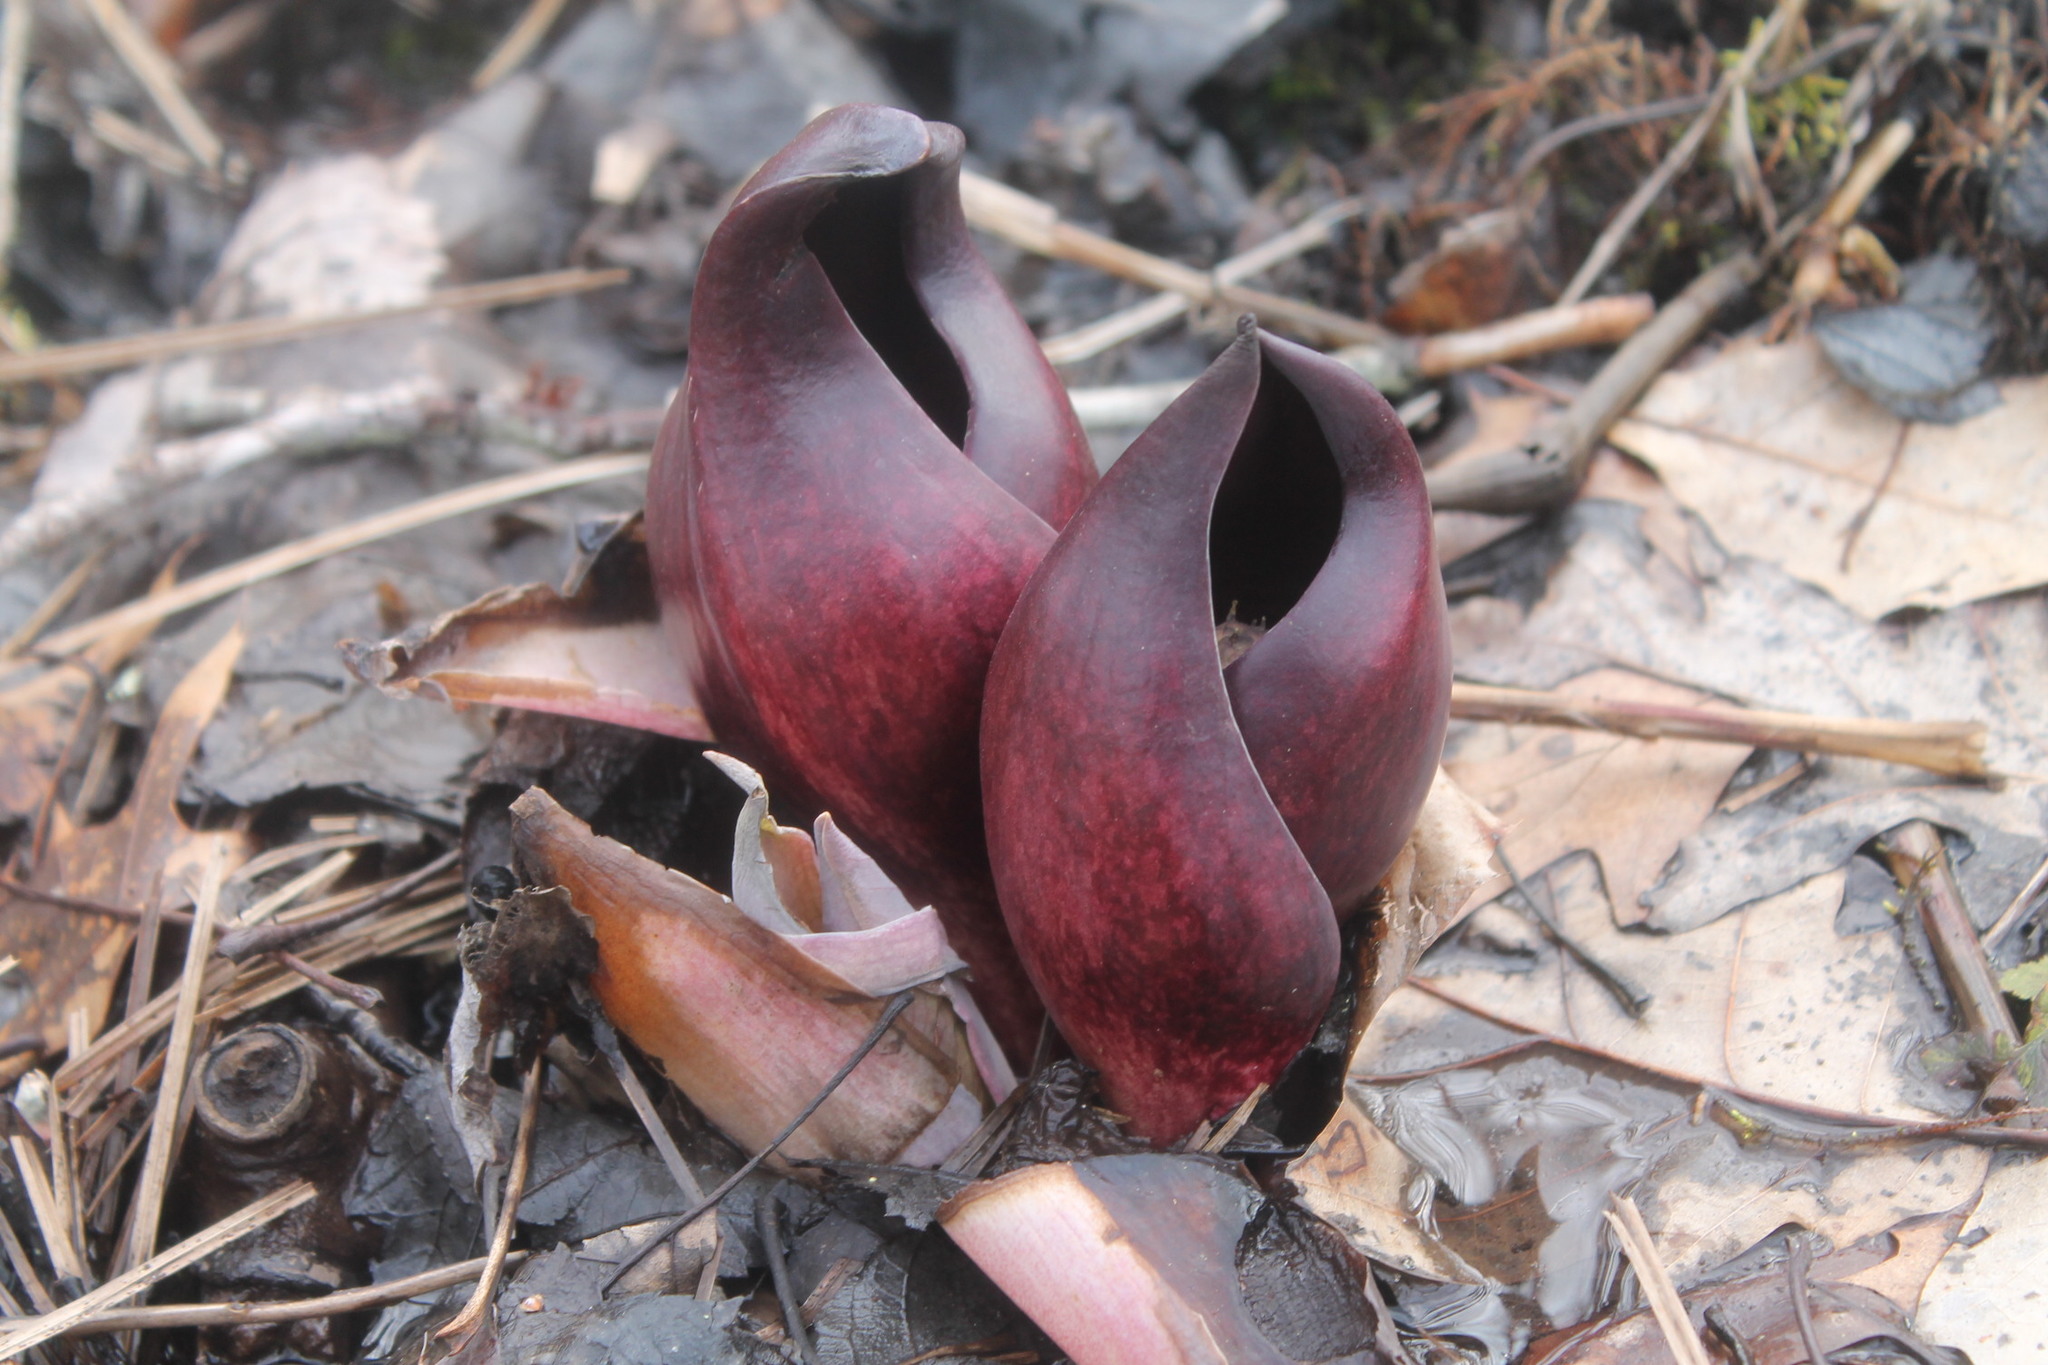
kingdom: Plantae
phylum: Tracheophyta
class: Liliopsida
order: Alismatales
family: Araceae
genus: Symplocarpus
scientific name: Symplocarpus foetidus
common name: Eastern skunk cabbage
